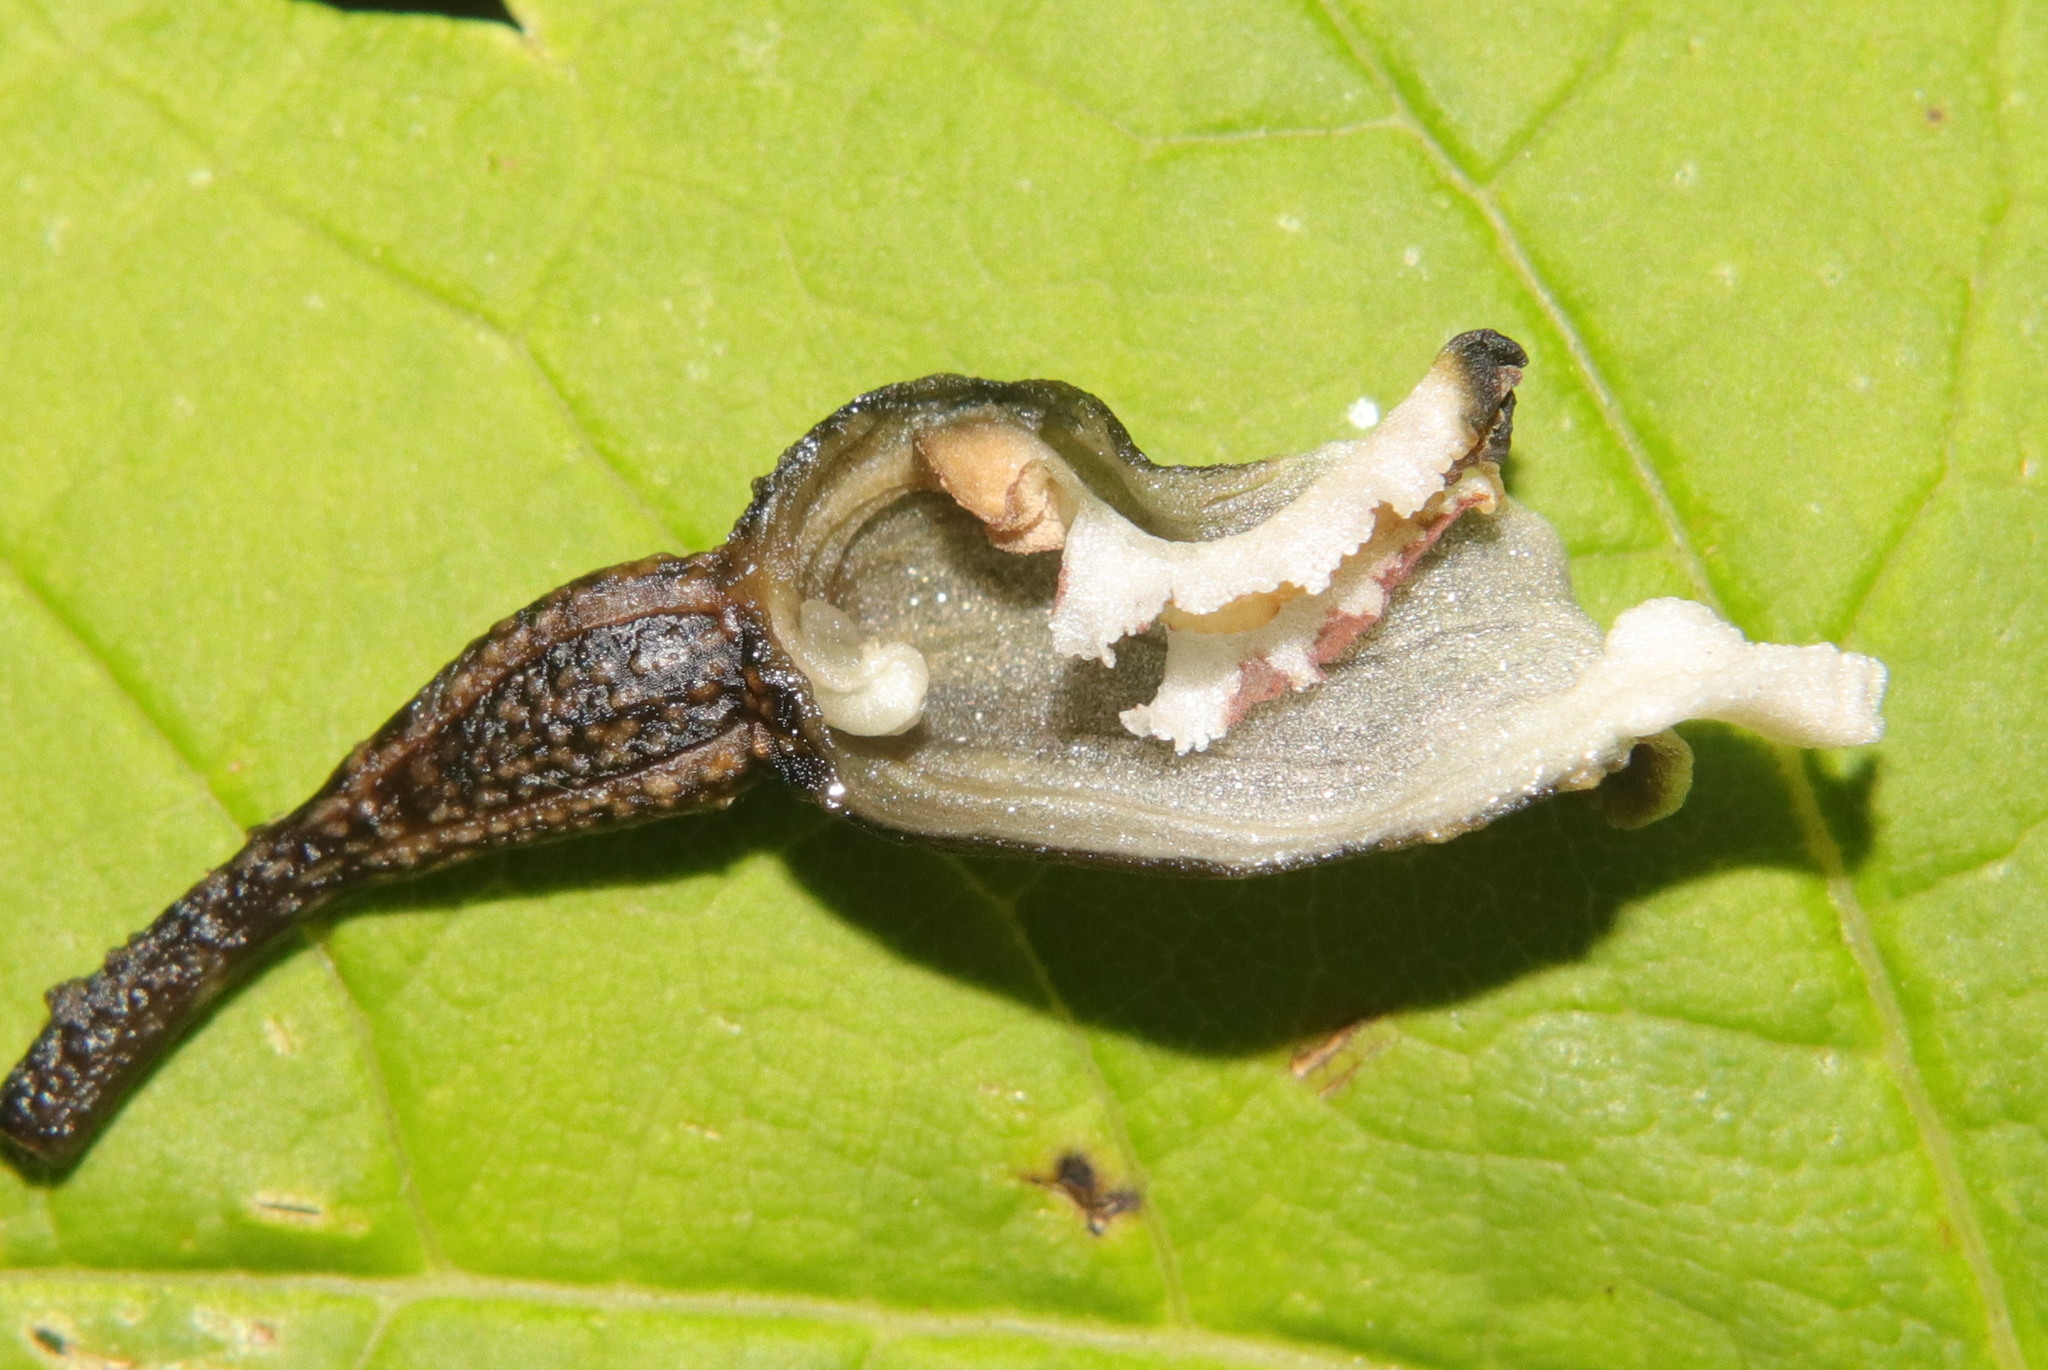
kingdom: Plantae
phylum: Tracheophyta
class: Liliopsida
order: Asparagales
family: Orchidaceae
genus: Gastrodia
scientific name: Gastrodia cunninghamii
